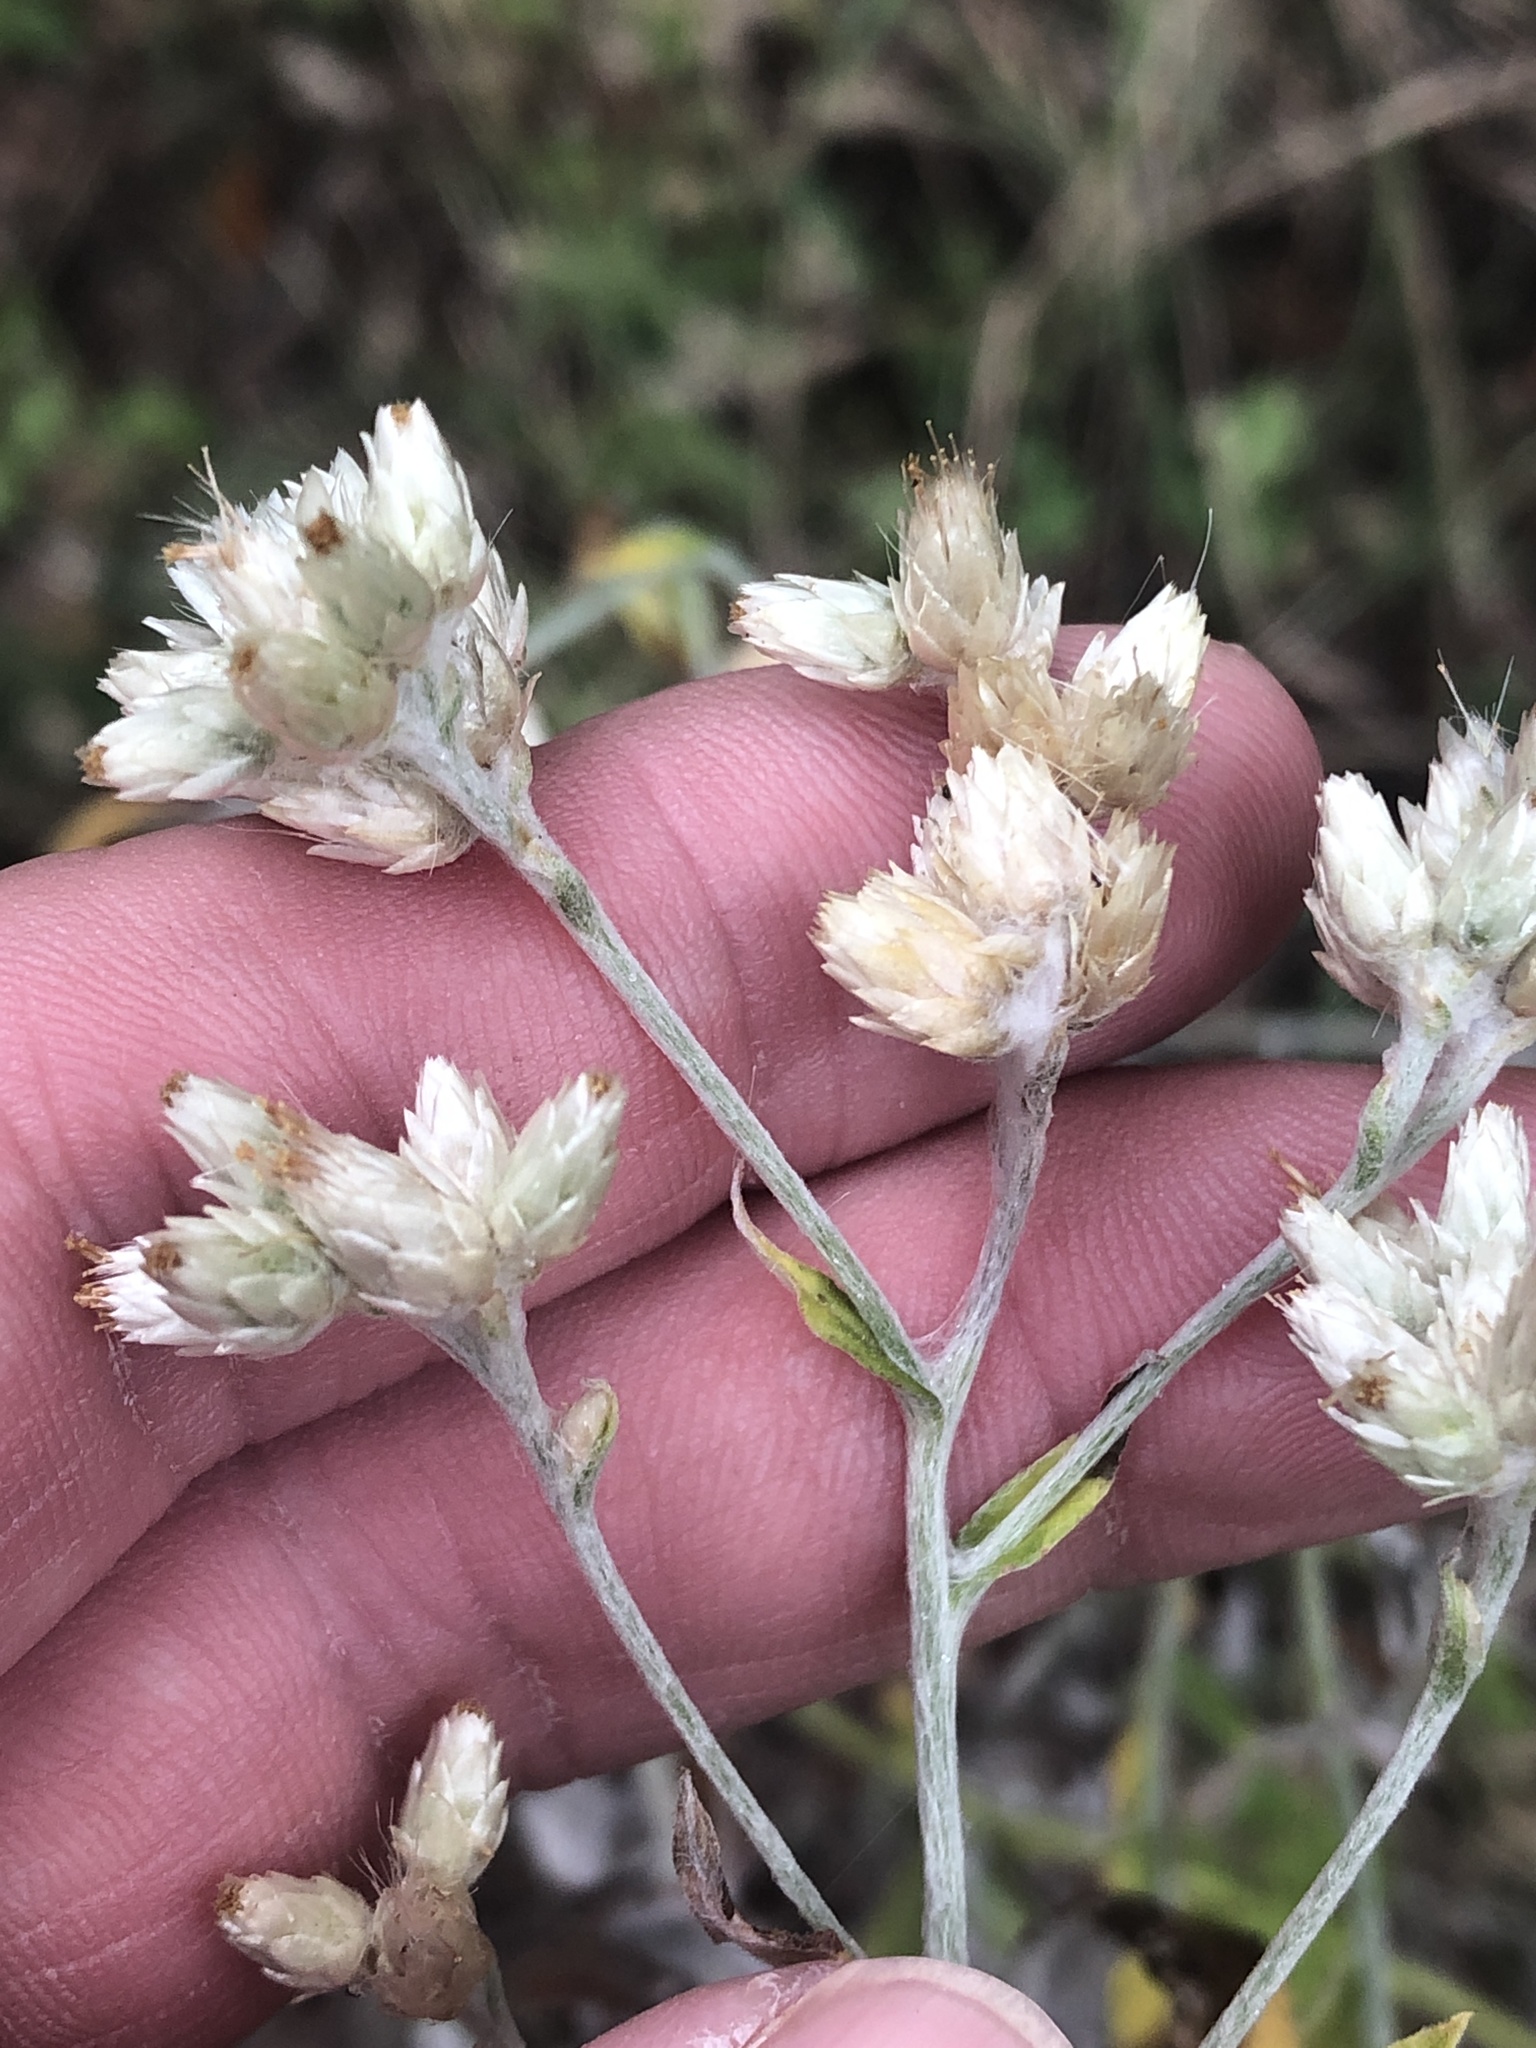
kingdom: Plantae
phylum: Tracheophyta
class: Magnoliopsida
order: Asterales
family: Asteraceae
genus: Pseudognaphalium
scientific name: Pseudognaphalium obtusifolium
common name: Eastern rabbit-tobacco
